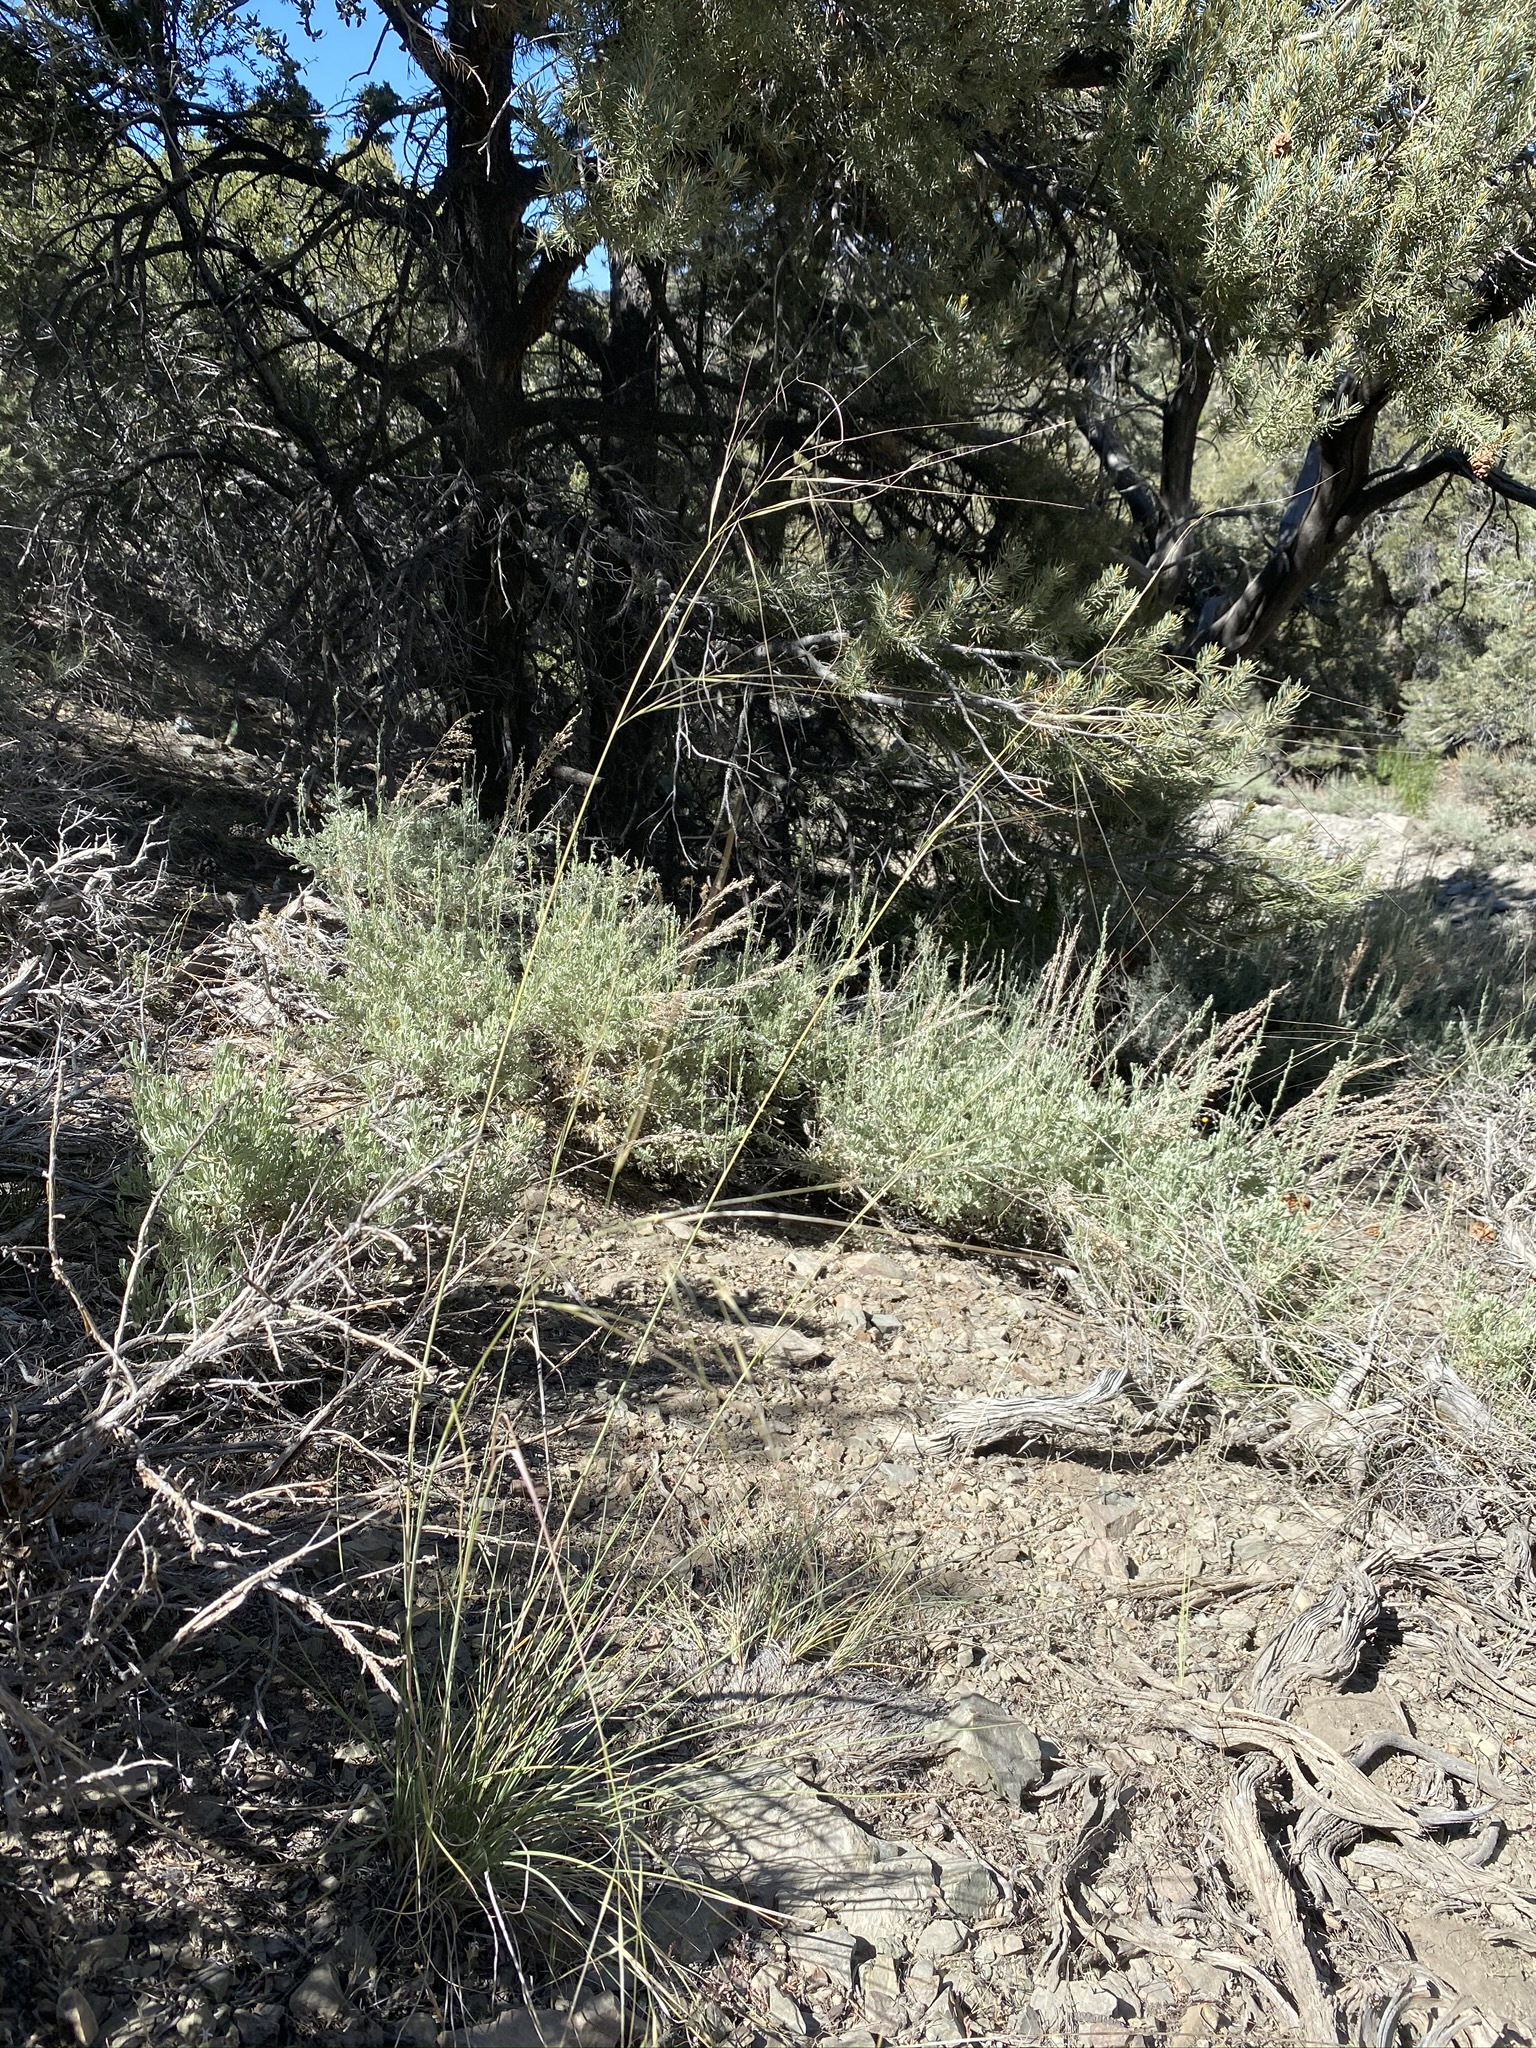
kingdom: Plantae
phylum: Tracheophyta
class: Liliopsida
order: Poales
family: Poaceae
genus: Hesperostipa
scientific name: Hesperostipa comata
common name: Needle-and-thread grass
